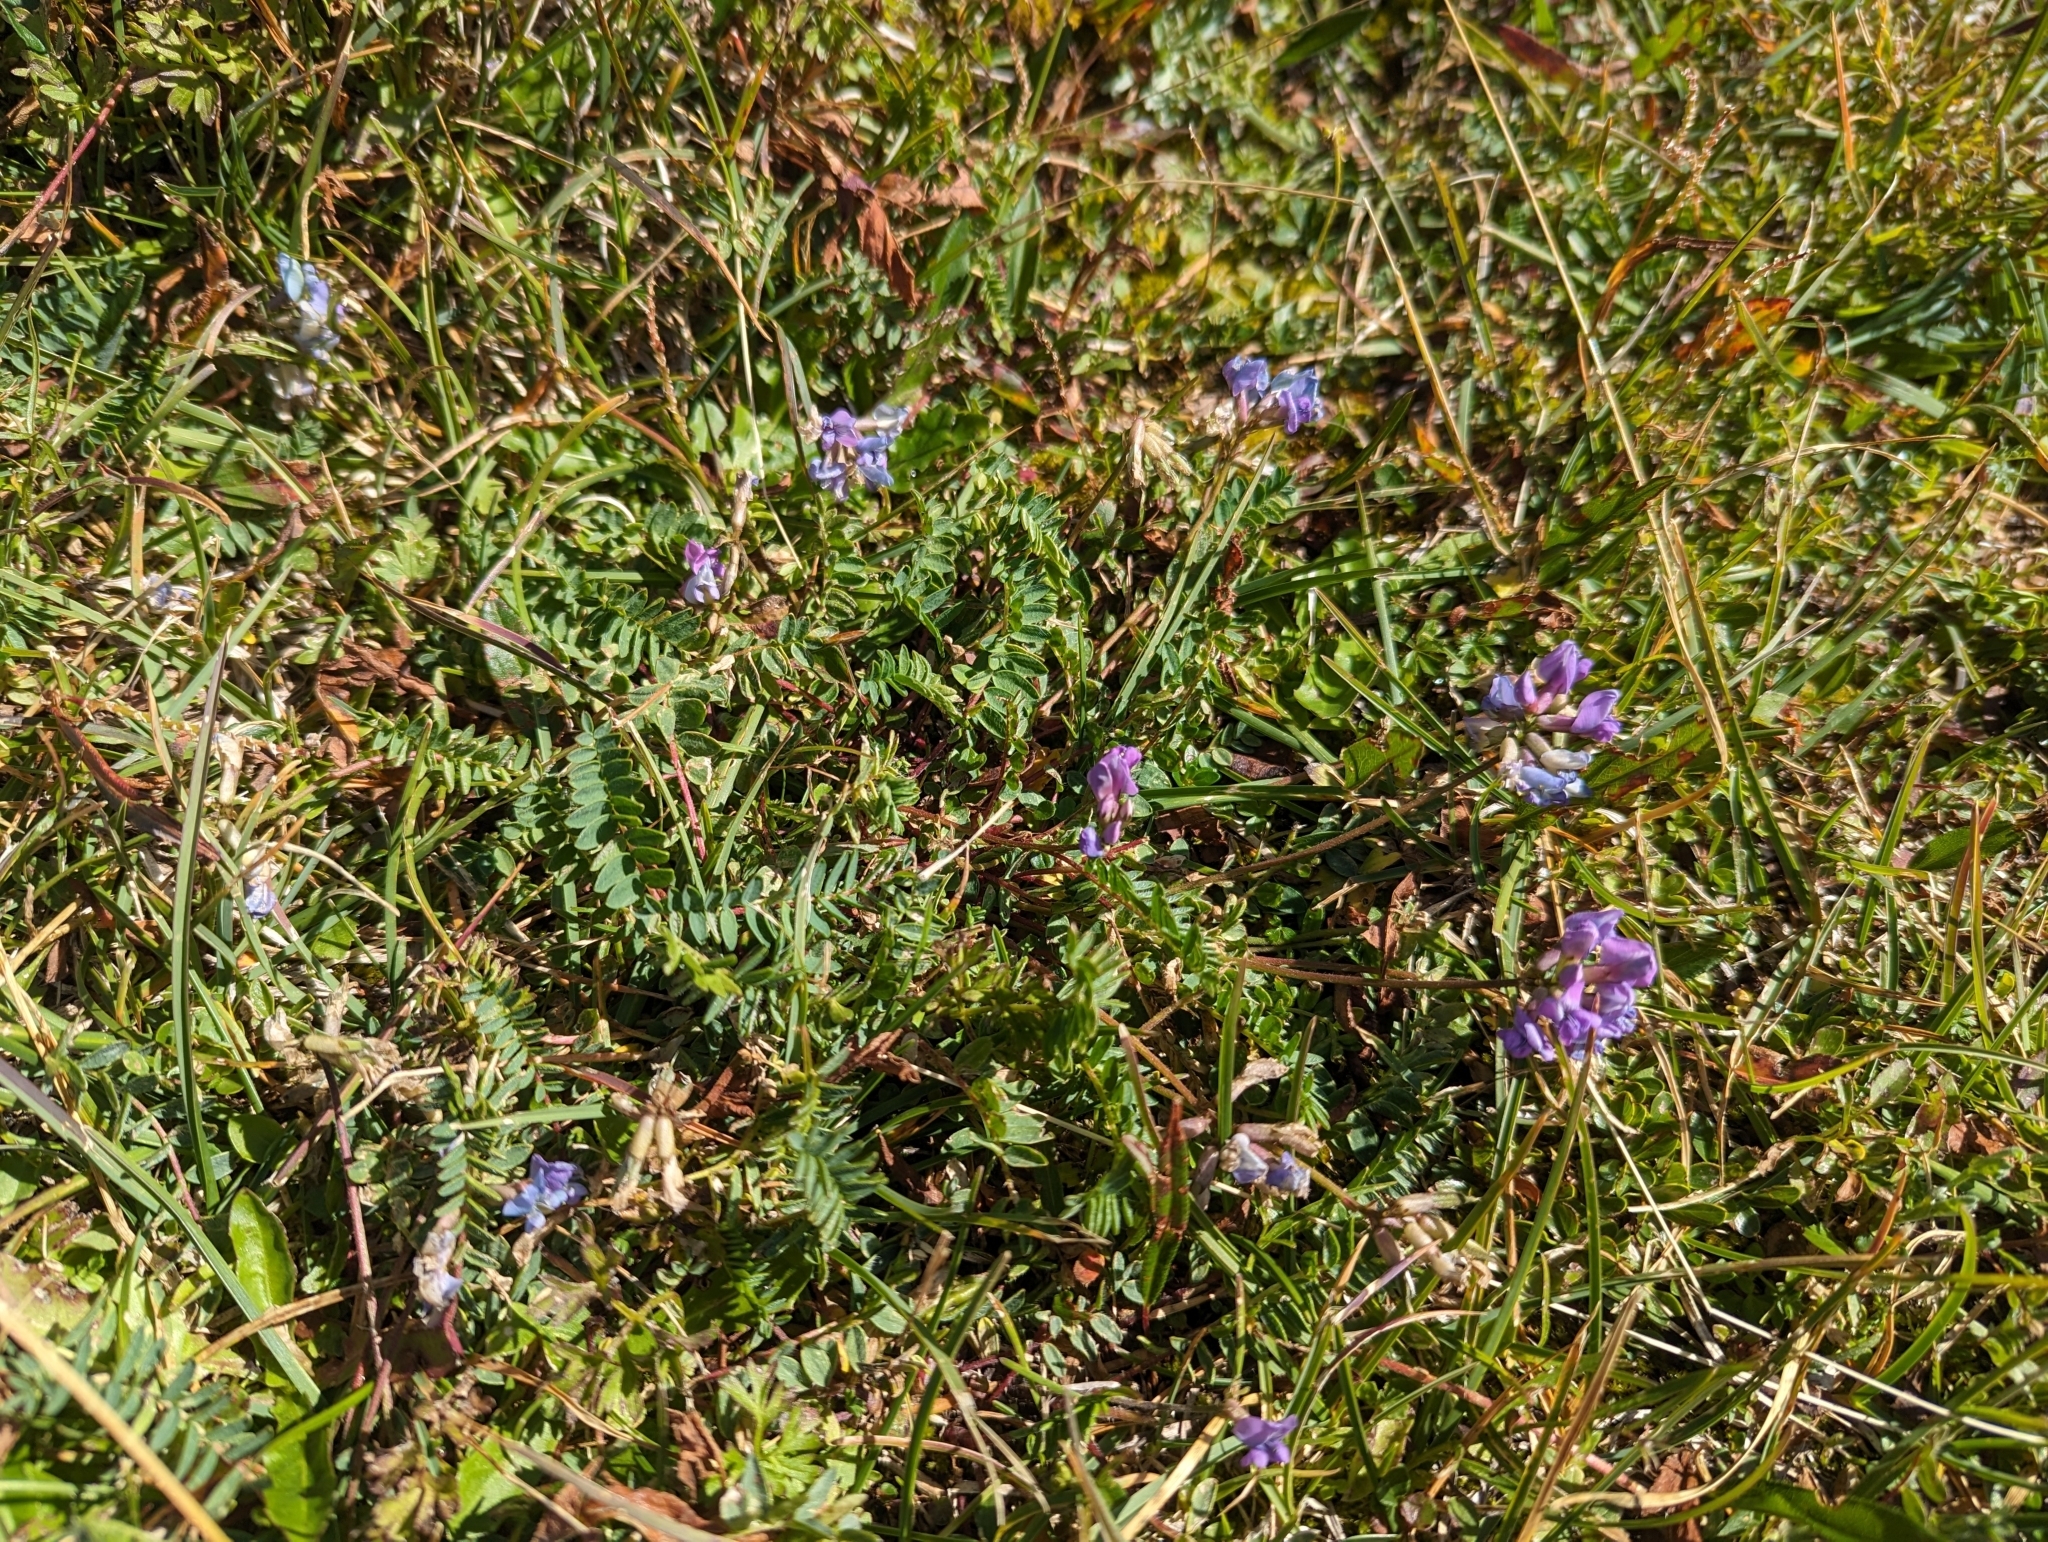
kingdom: Plantae
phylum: Tracheophyta
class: Magnoliopsida
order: Fabales
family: Fabaceae
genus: Oxytropis
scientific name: Oxytropis montana
